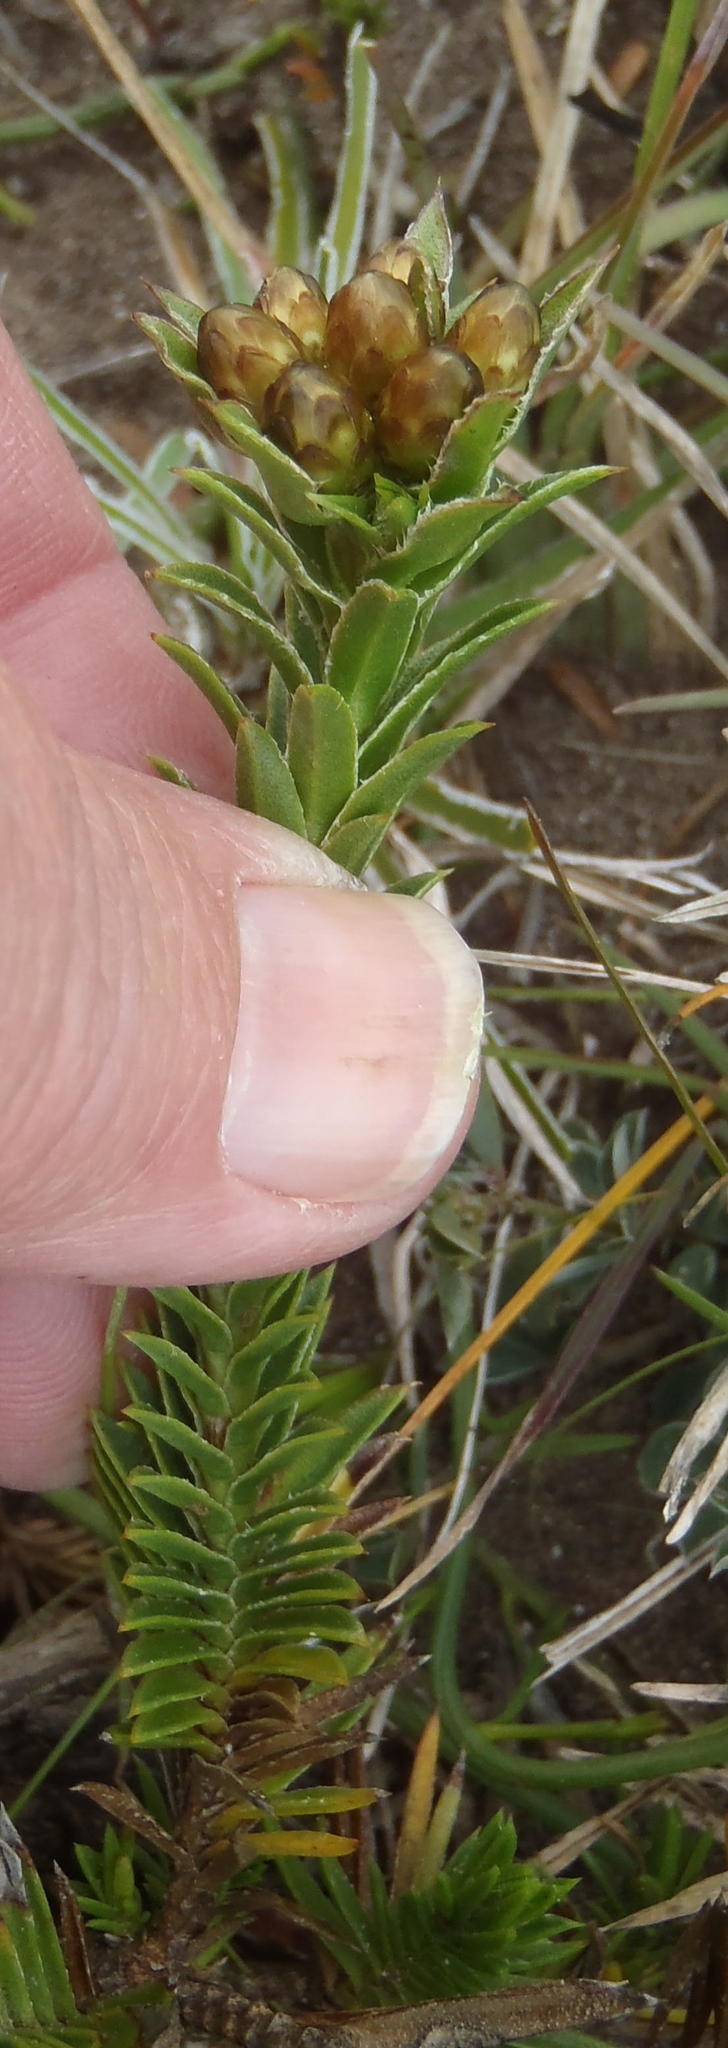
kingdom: Plantae
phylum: Tracheophyta
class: Magnoliopsida
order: Asterales
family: Asteraceae
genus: Oedera
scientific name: Oedera steyniae
